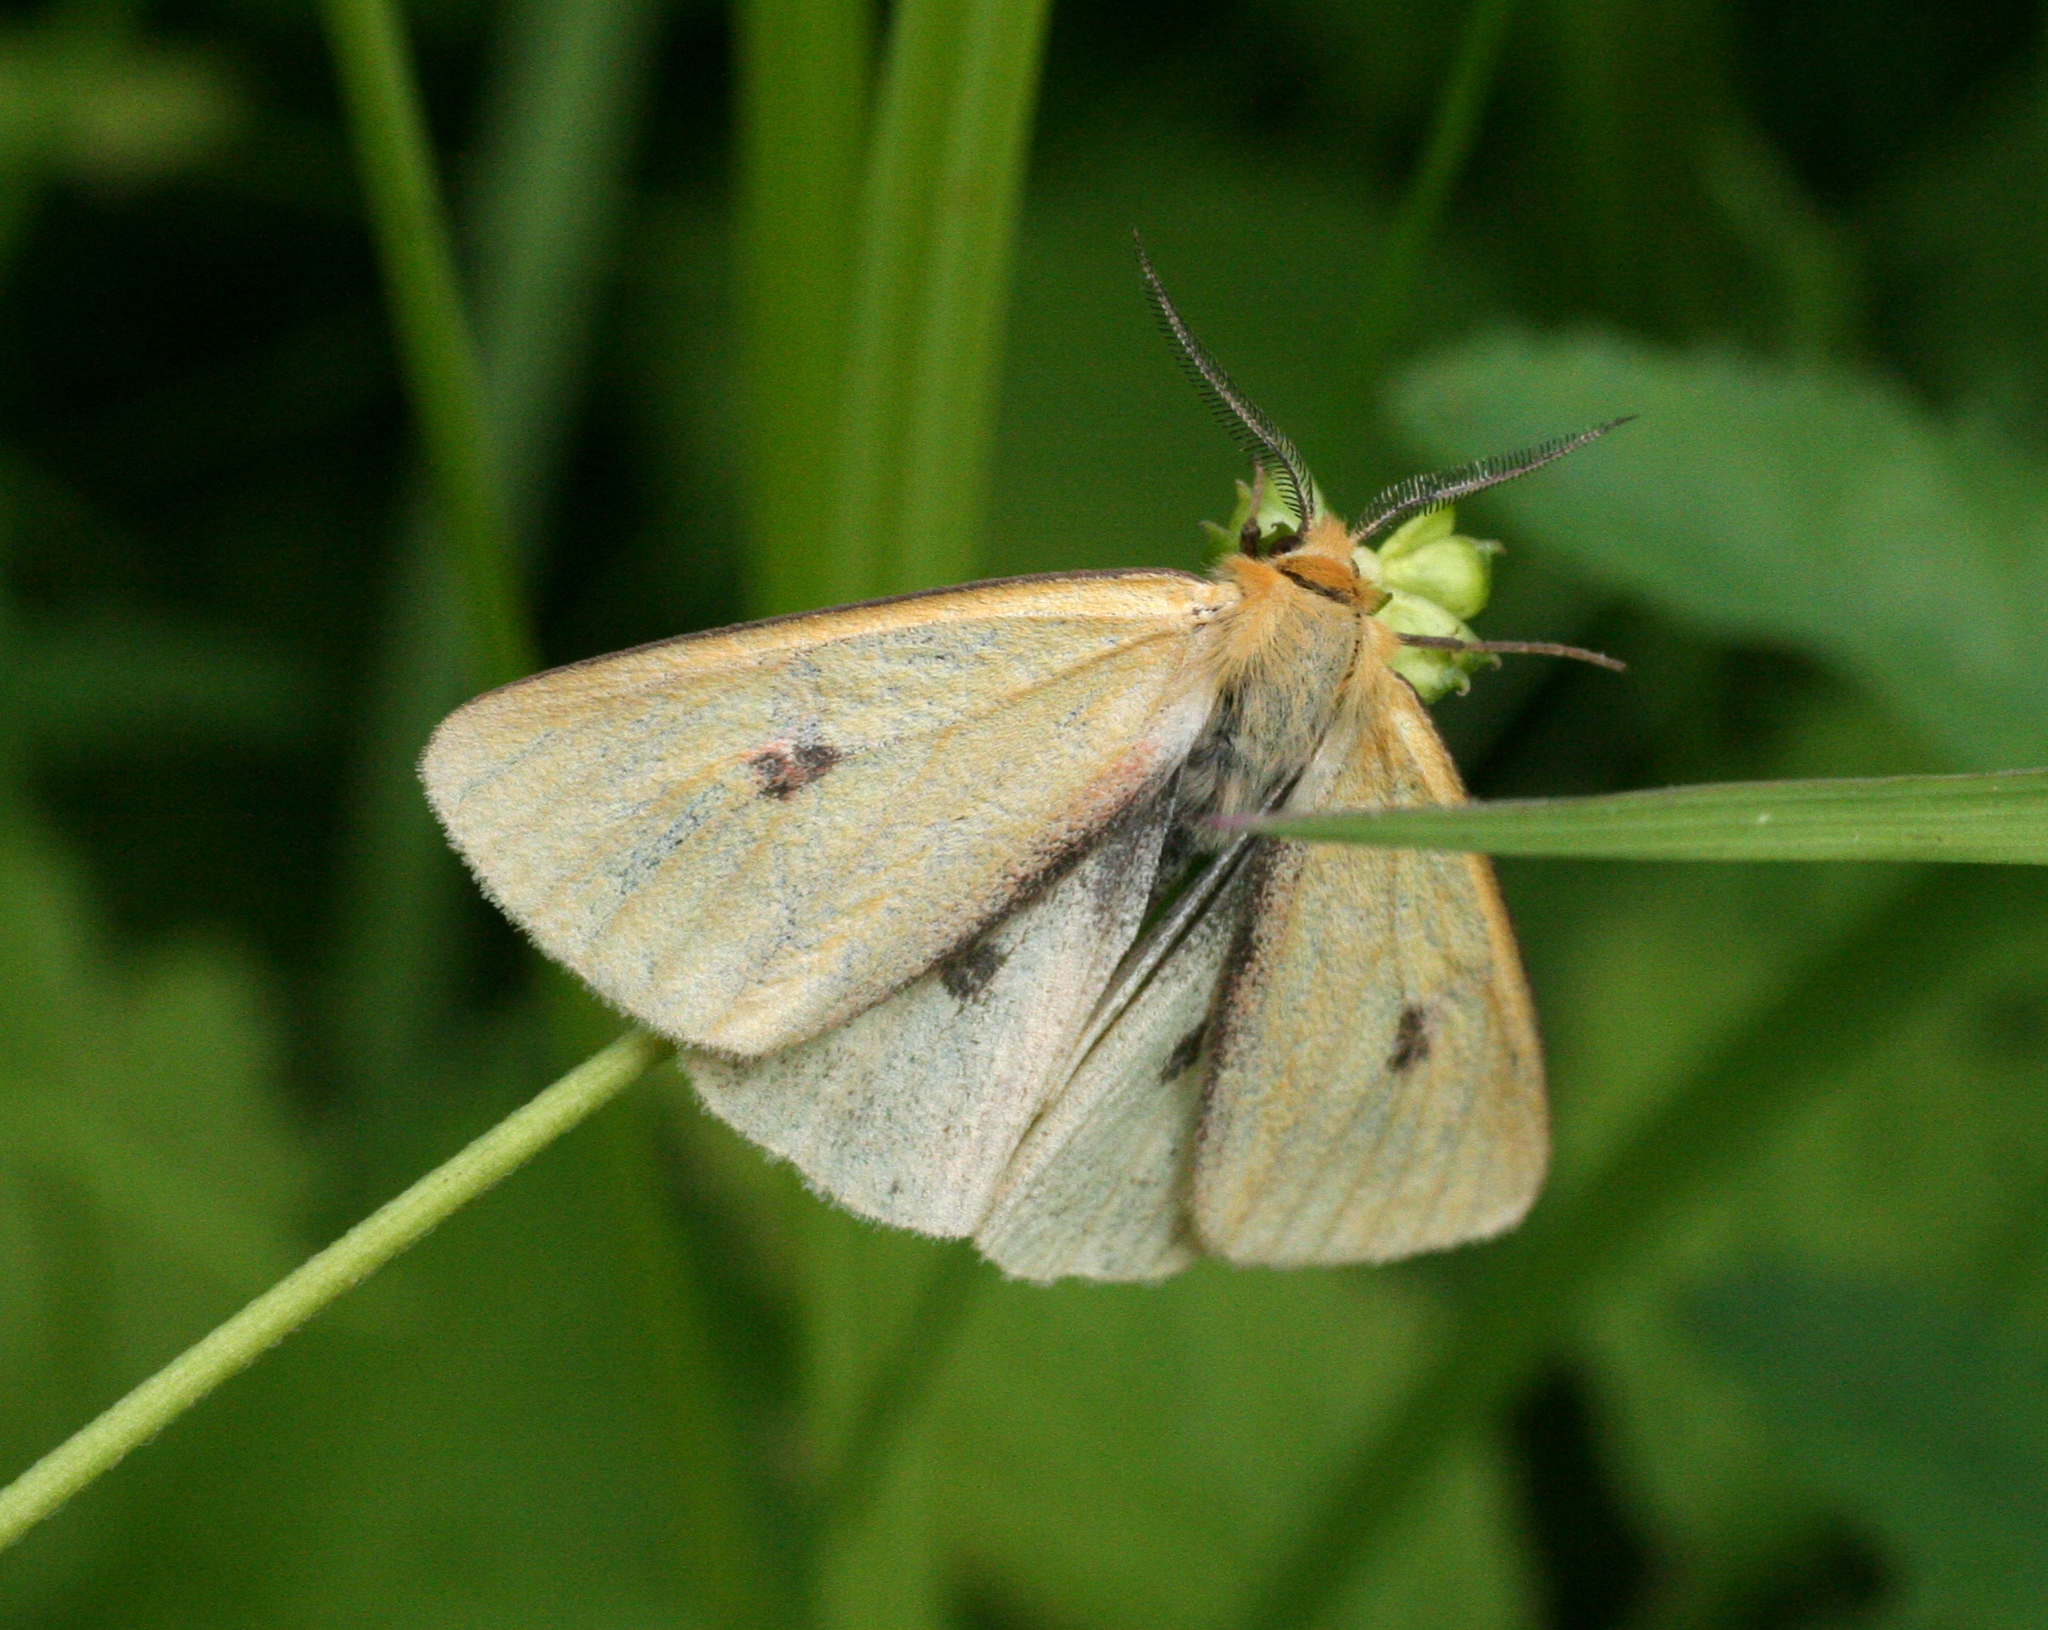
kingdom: Animalia
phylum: Arthropoda
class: Insecta
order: Lepidoptera
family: Erebidae
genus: Diacrisia
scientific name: Diacrisia sannio
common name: Clouded buff
